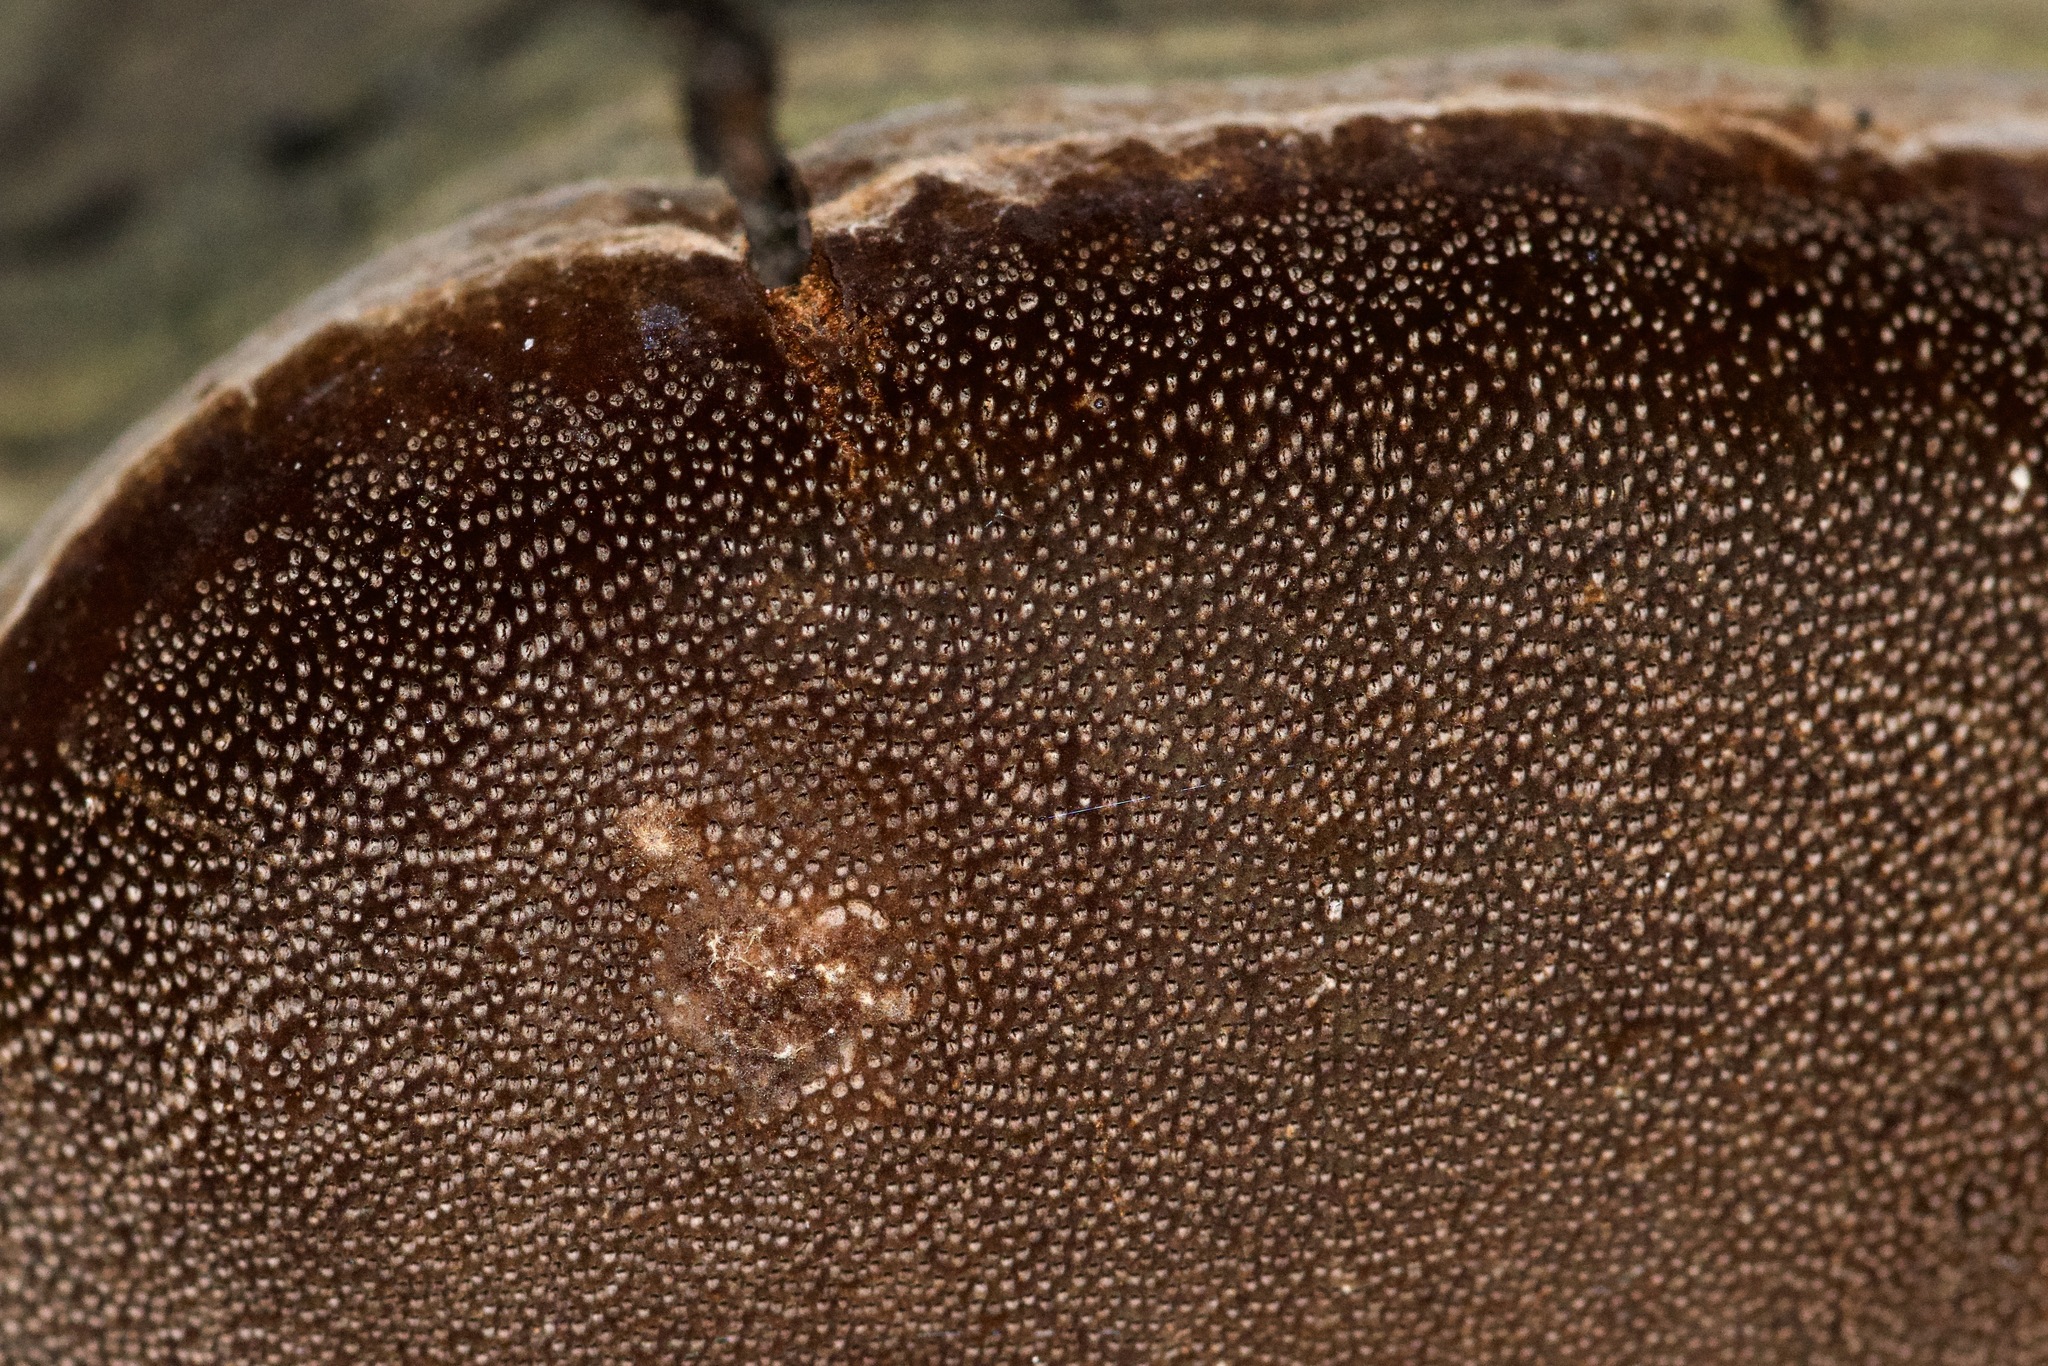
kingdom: Fungi
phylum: Basidiomycota
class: Agaricomycetes
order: Hymenochaetales
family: Hymenochaetaceae
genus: Phellinus
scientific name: Phellinus tremulae
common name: Aspen bracket
